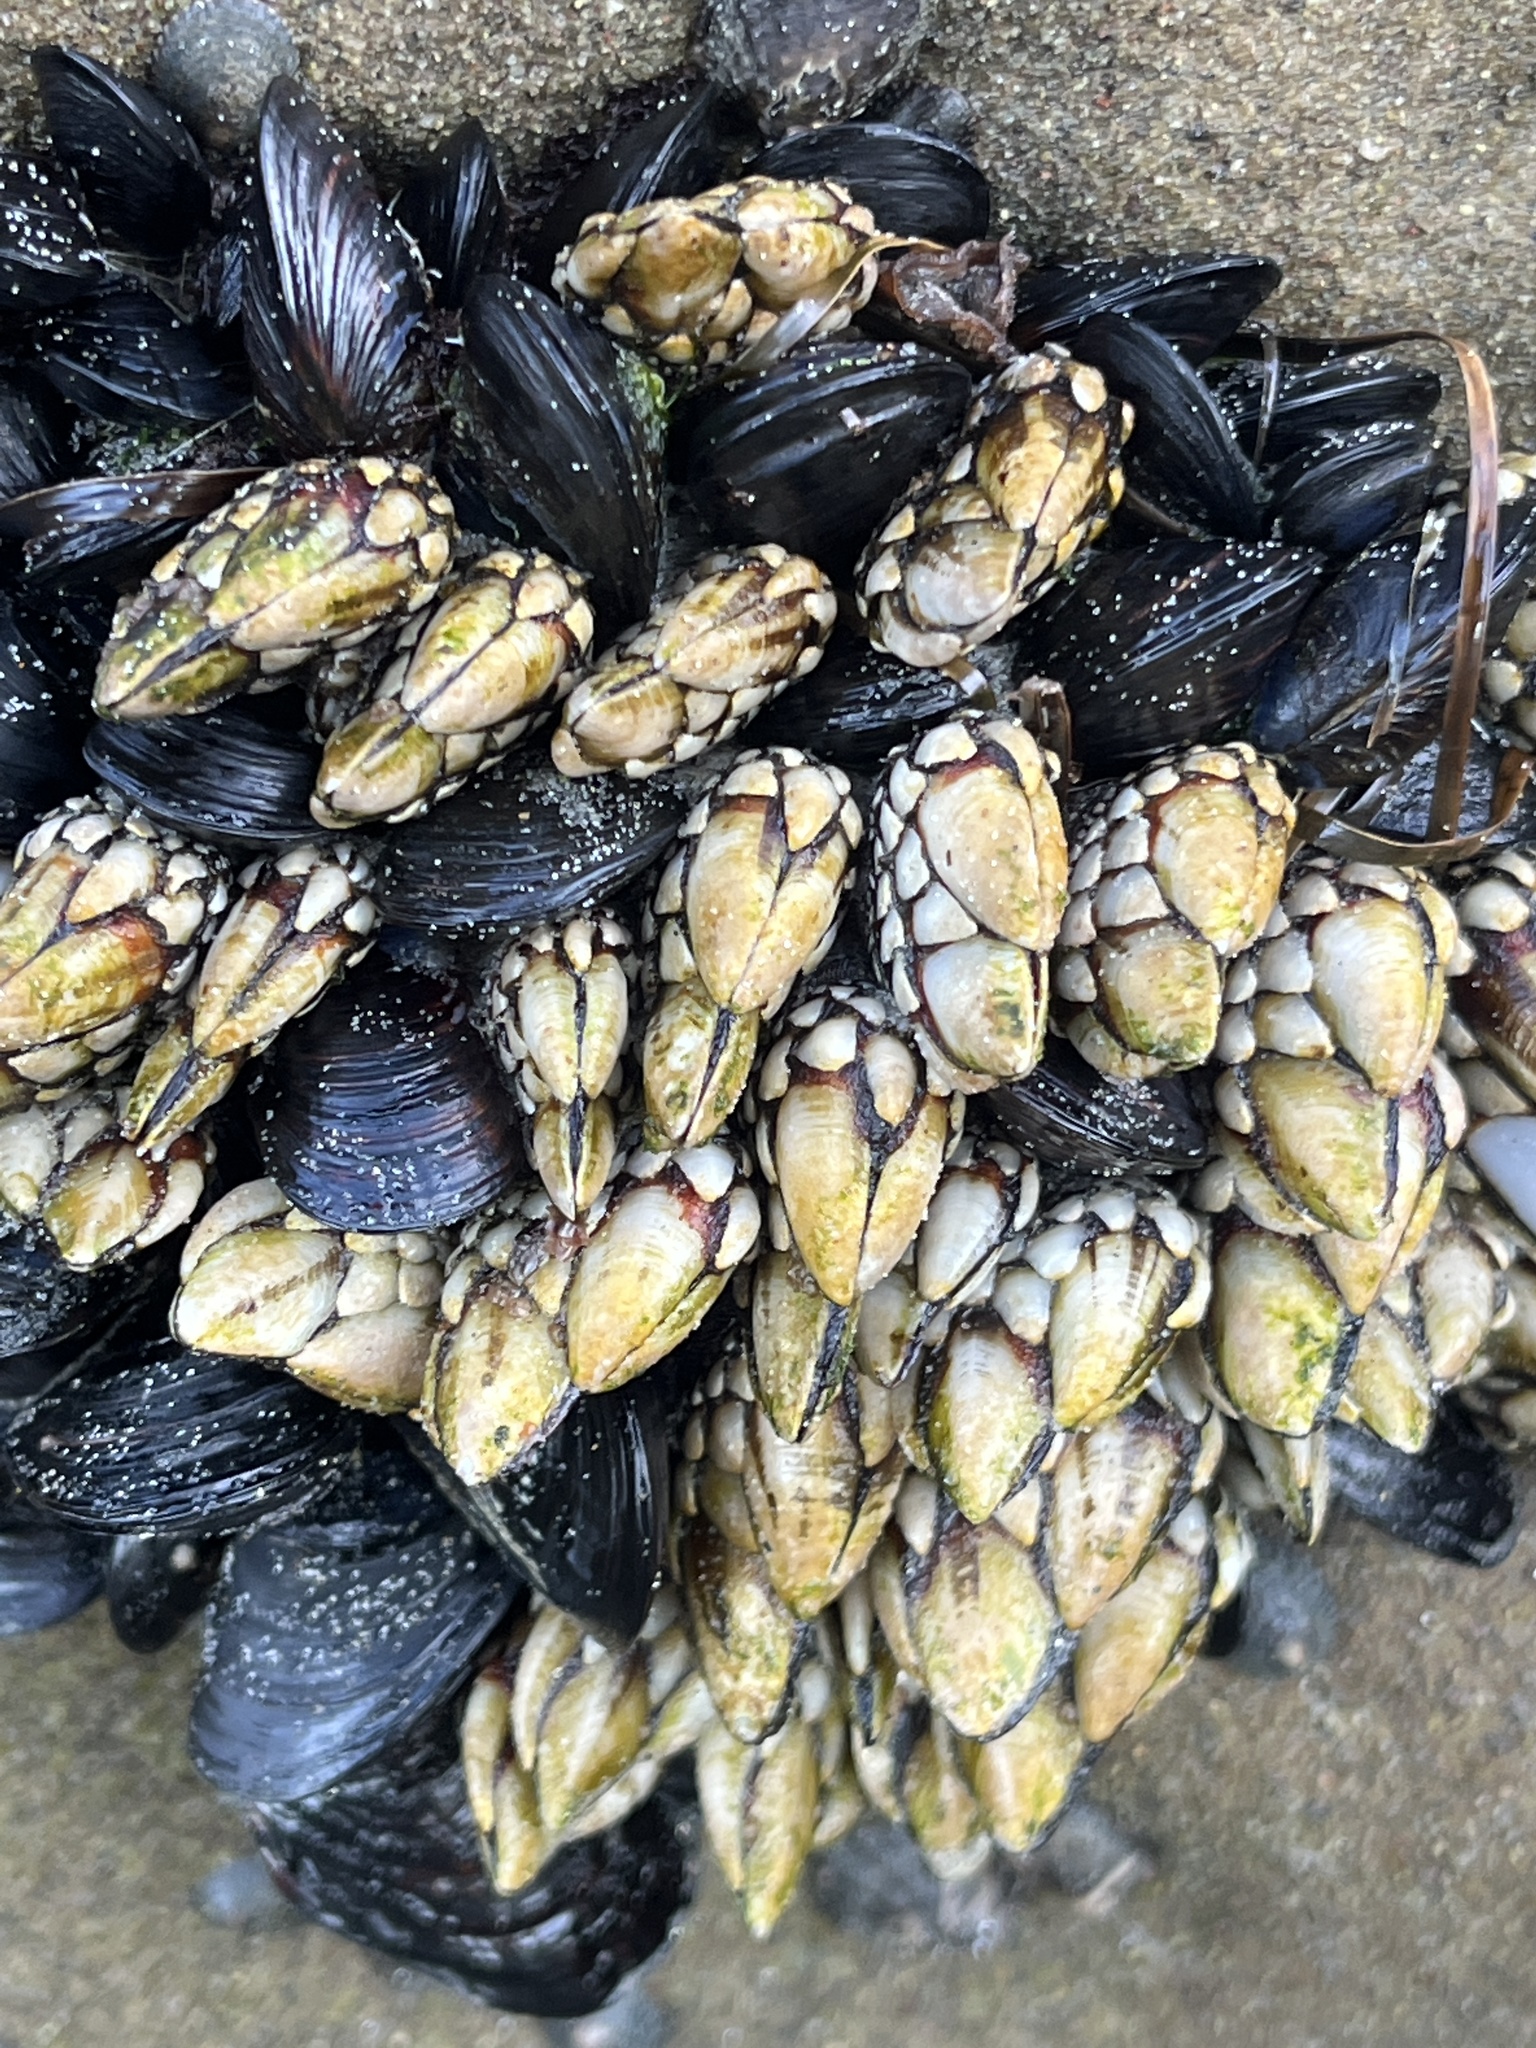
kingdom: Animalia
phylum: Arthropoda
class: Maxillopoda
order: Pedunculata
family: Pollicipedidae
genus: Pollicipes
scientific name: Pollicipes polymerus
